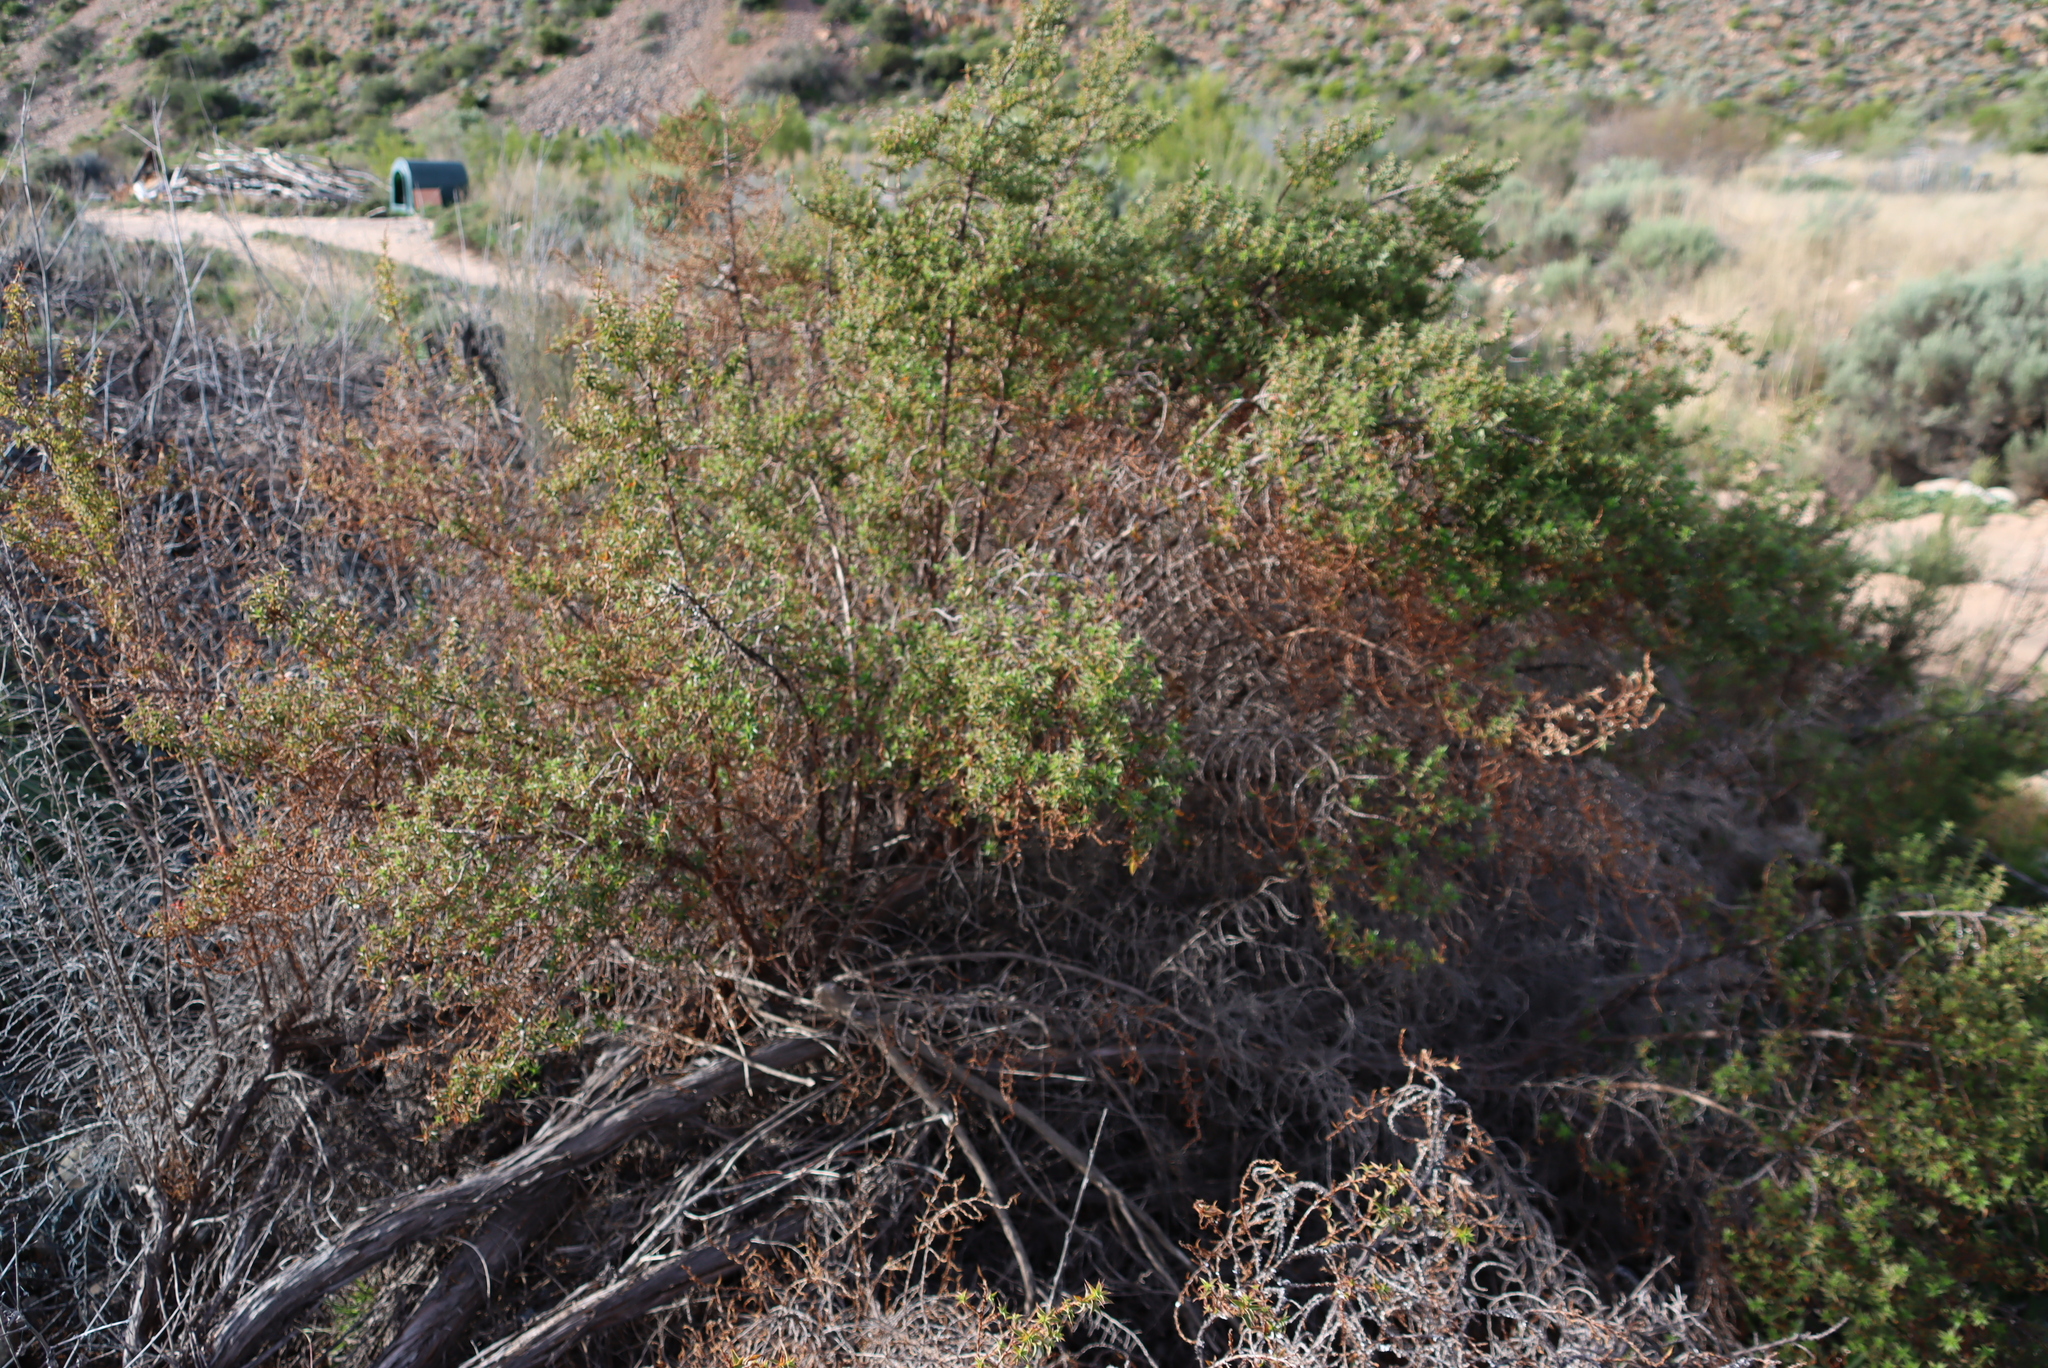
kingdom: Plantae
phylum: Tracheophyta
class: Magnoliopsida
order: Rosales
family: Rosaceae
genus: Cliffortia
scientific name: Cliffortia ruscifolia
